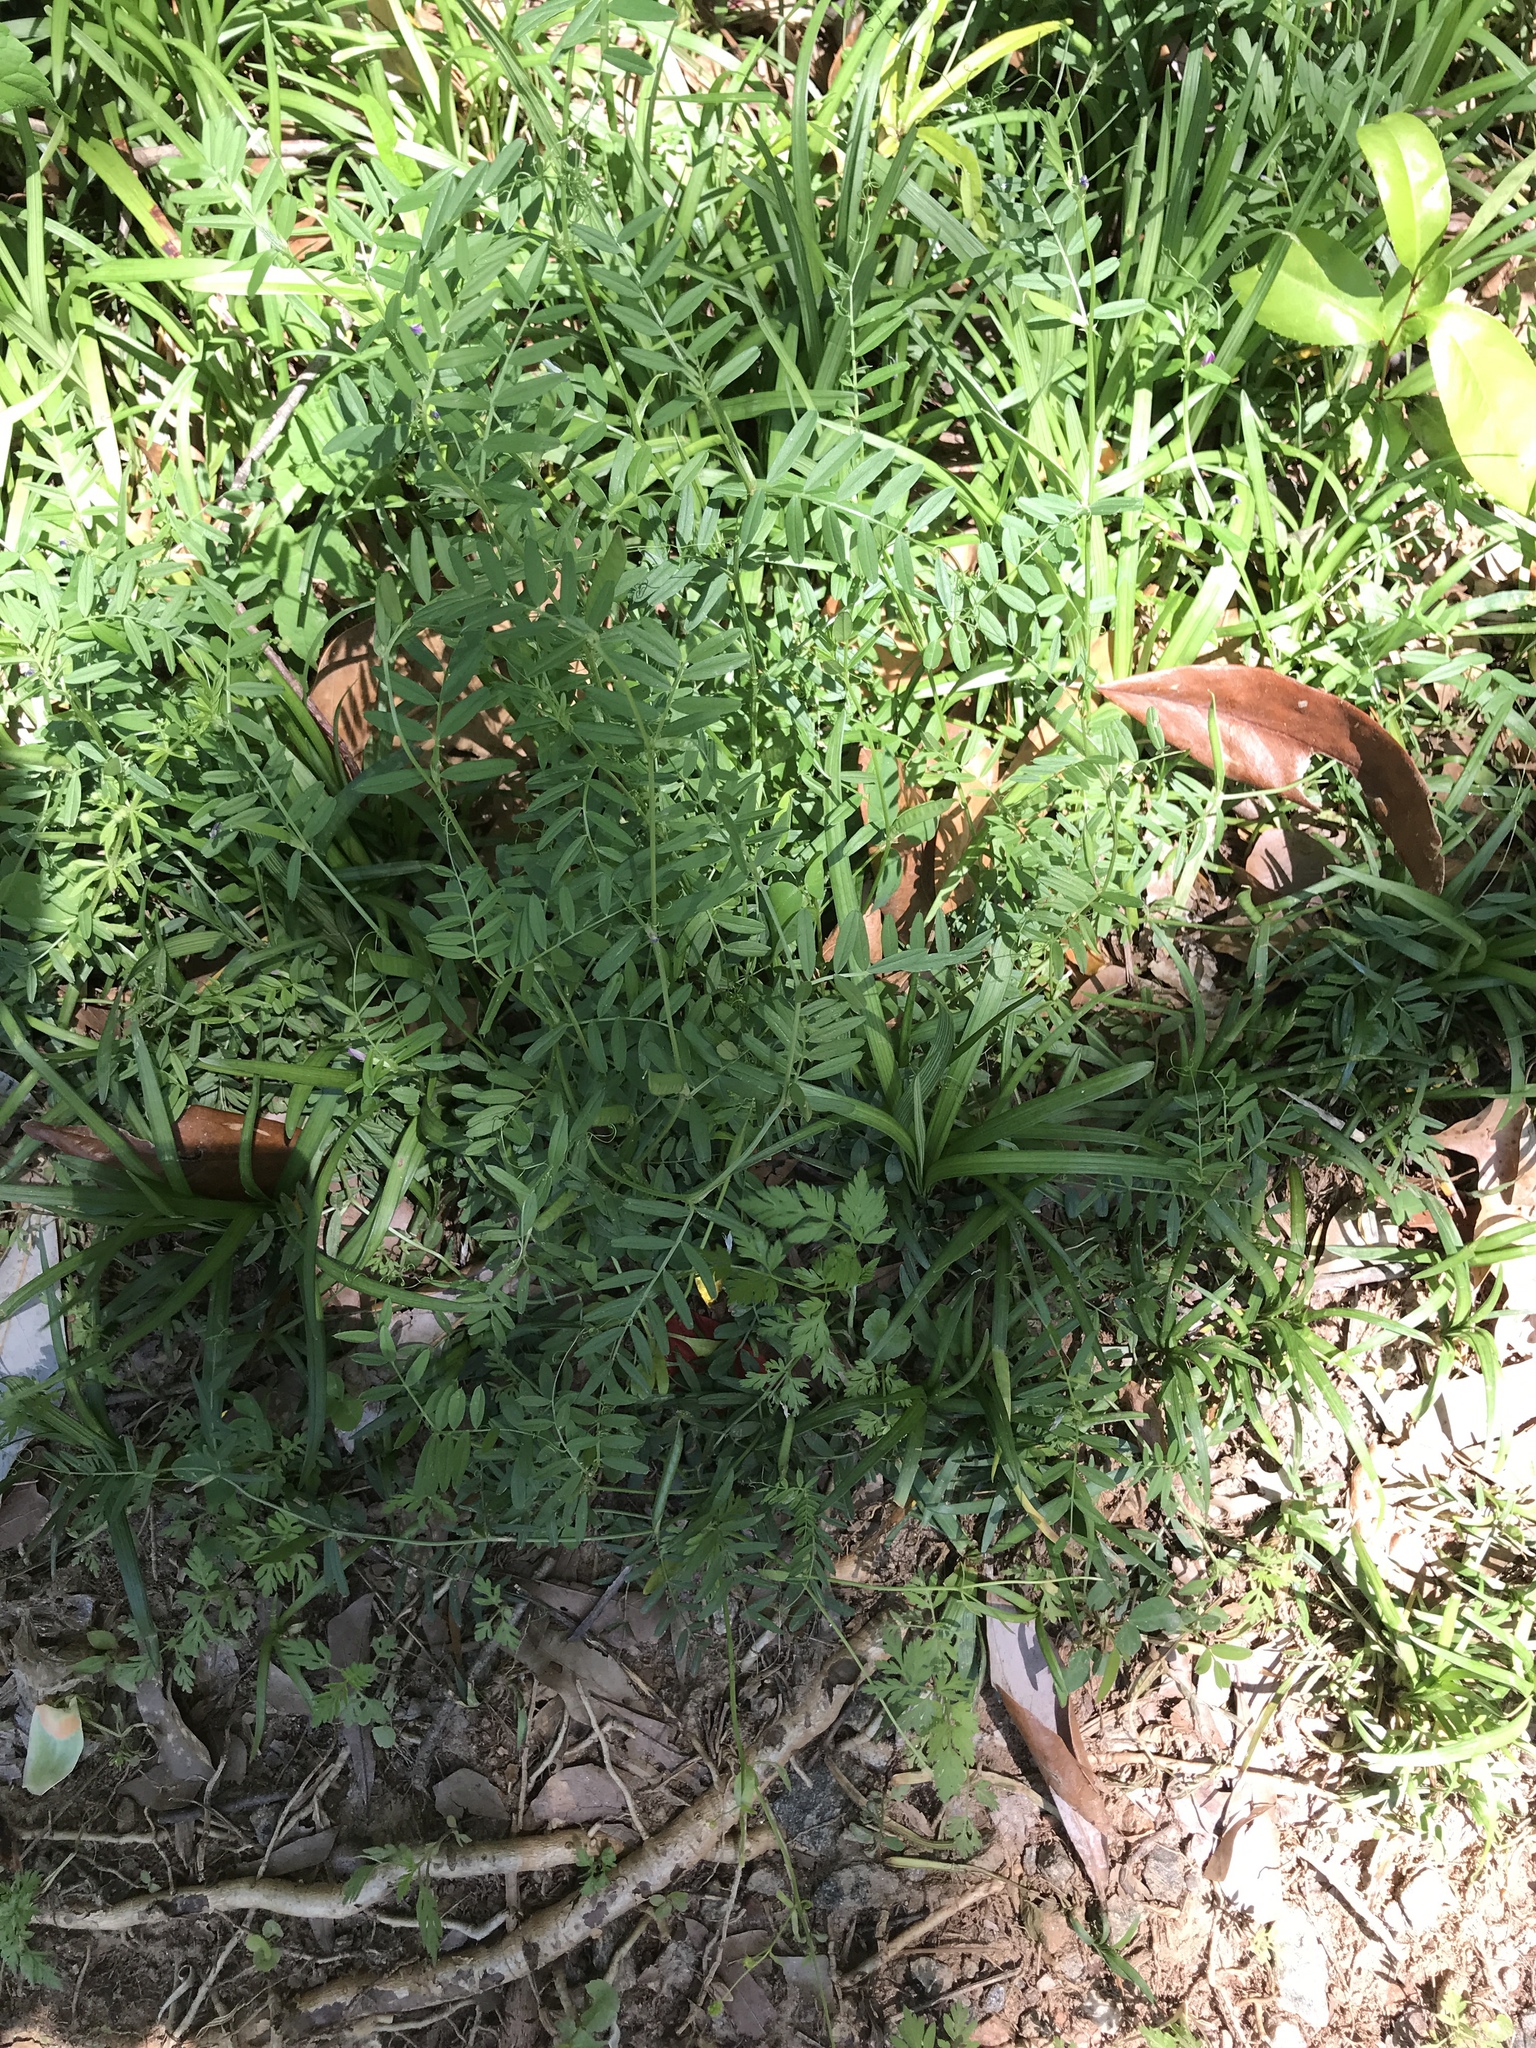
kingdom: Plantae
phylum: Tracheophyta
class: Magnoliopsida
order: Fabales
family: Fabaceae
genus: Vicia
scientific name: Vicia sativa
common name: Garden vetch
